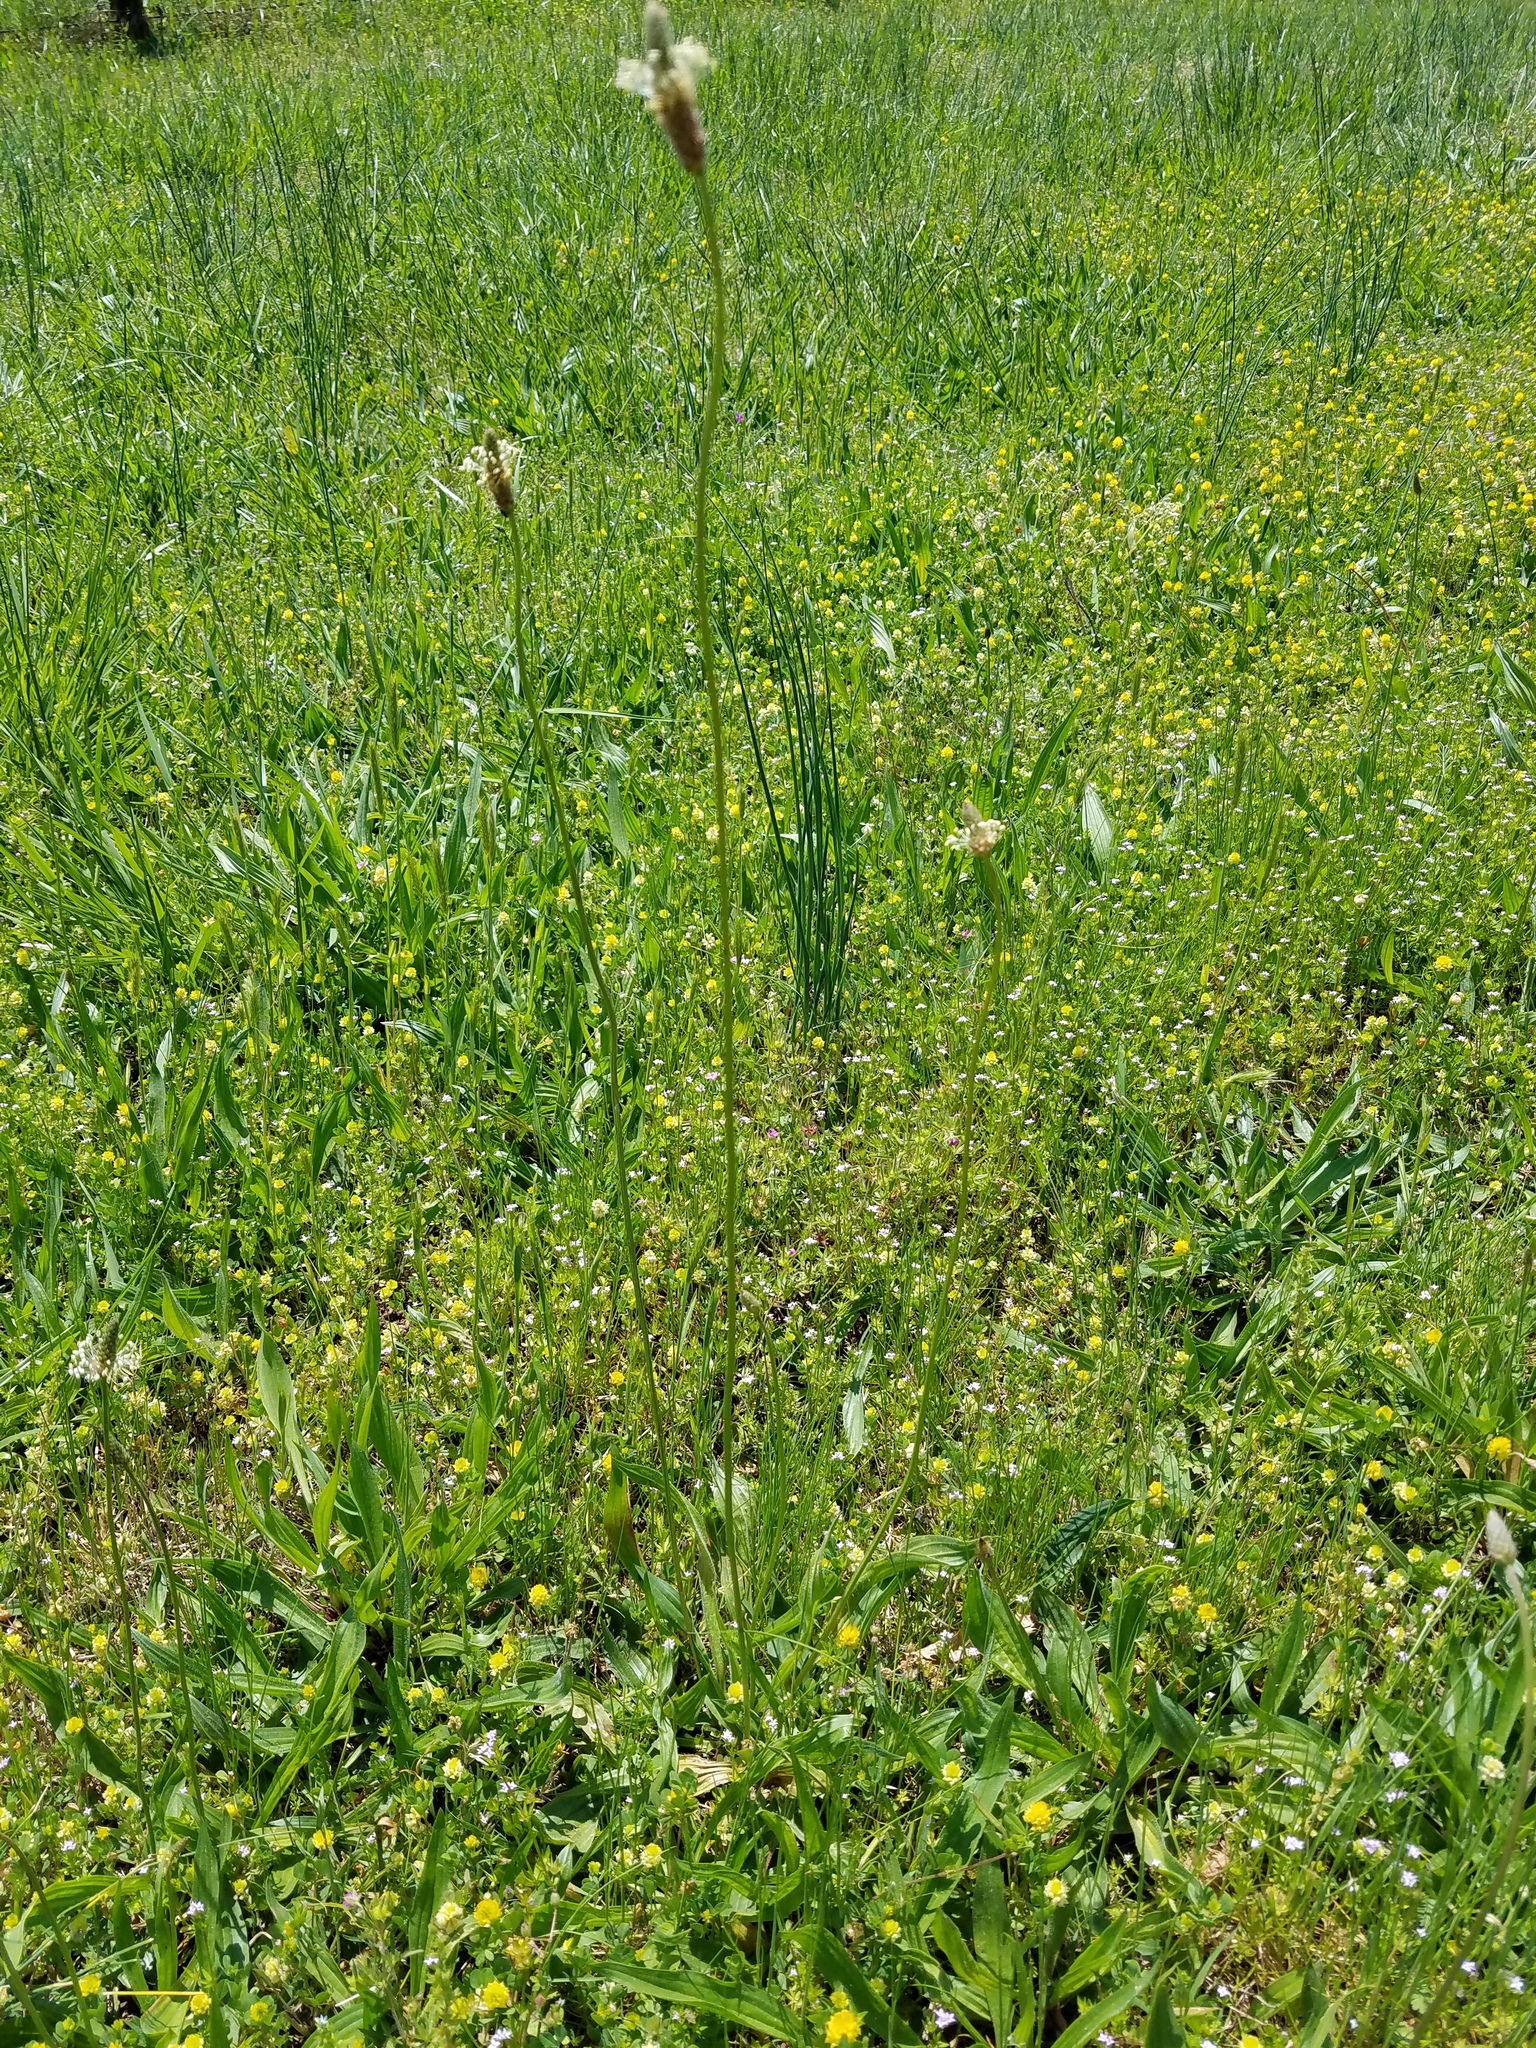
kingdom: Plantae
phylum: Tracheophyta
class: Magnoliopsida
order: Lamiales
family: Plantaginaceae
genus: Plantago
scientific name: Plantago lanceolata
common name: Ribwort plantain
